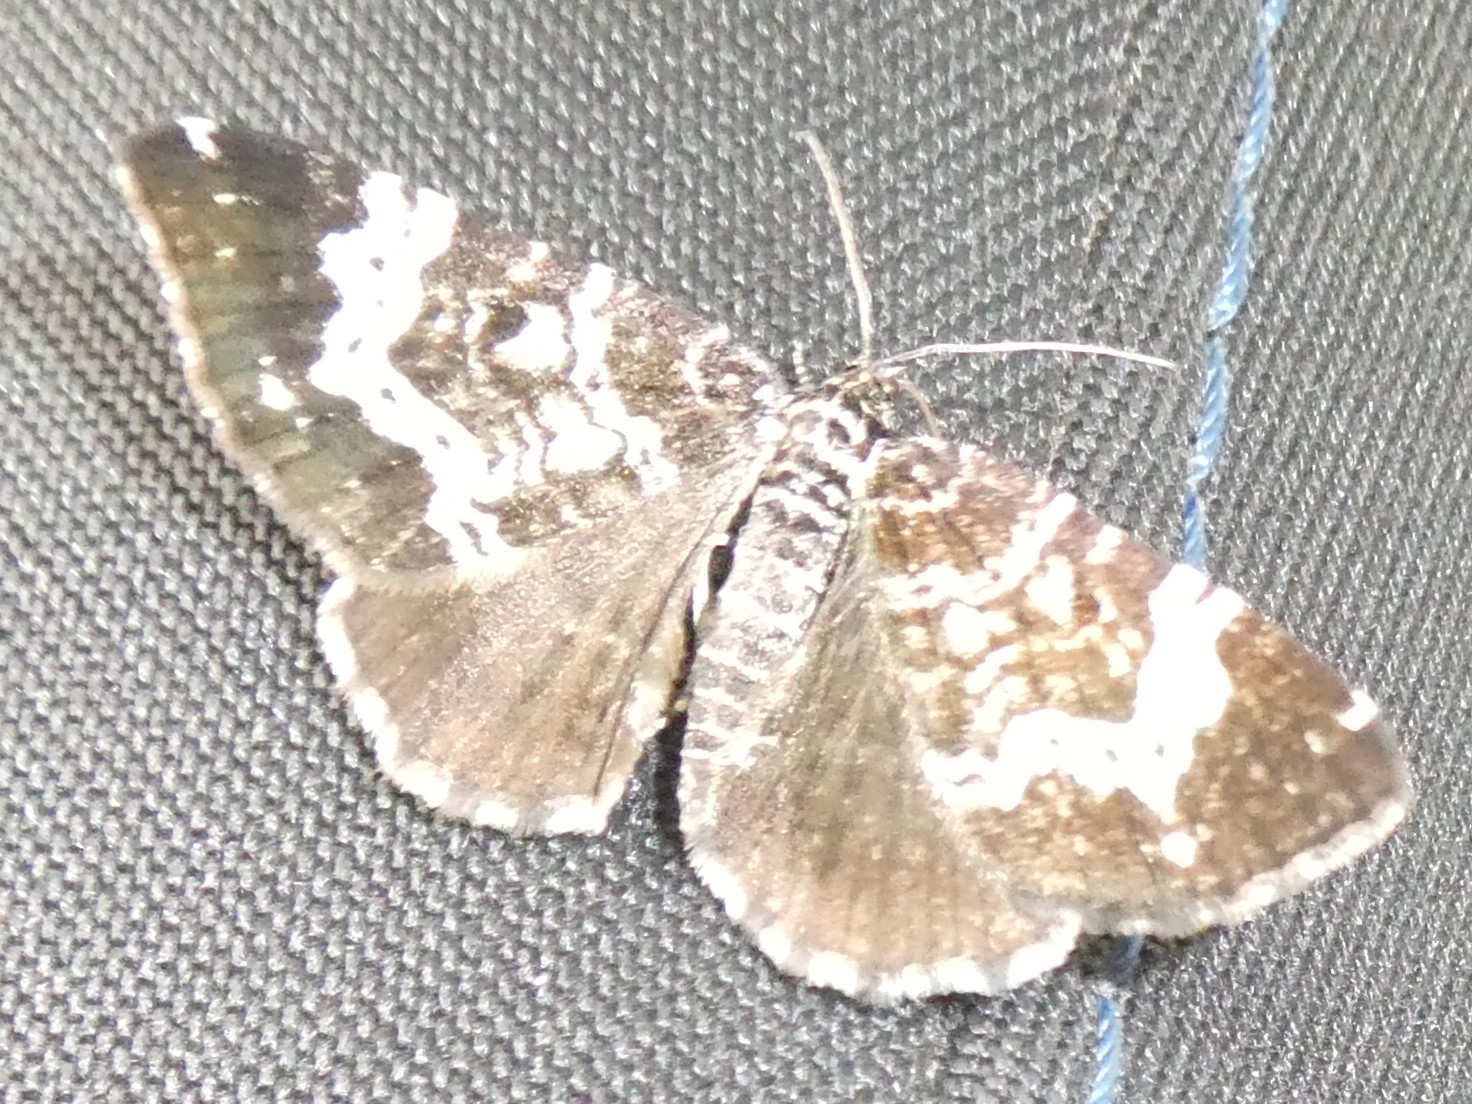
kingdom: Animalia
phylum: Arthropoda
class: Insecta
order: Lepidoptera
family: Geometridae
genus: Rheumaptera
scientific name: Rheumaptera
